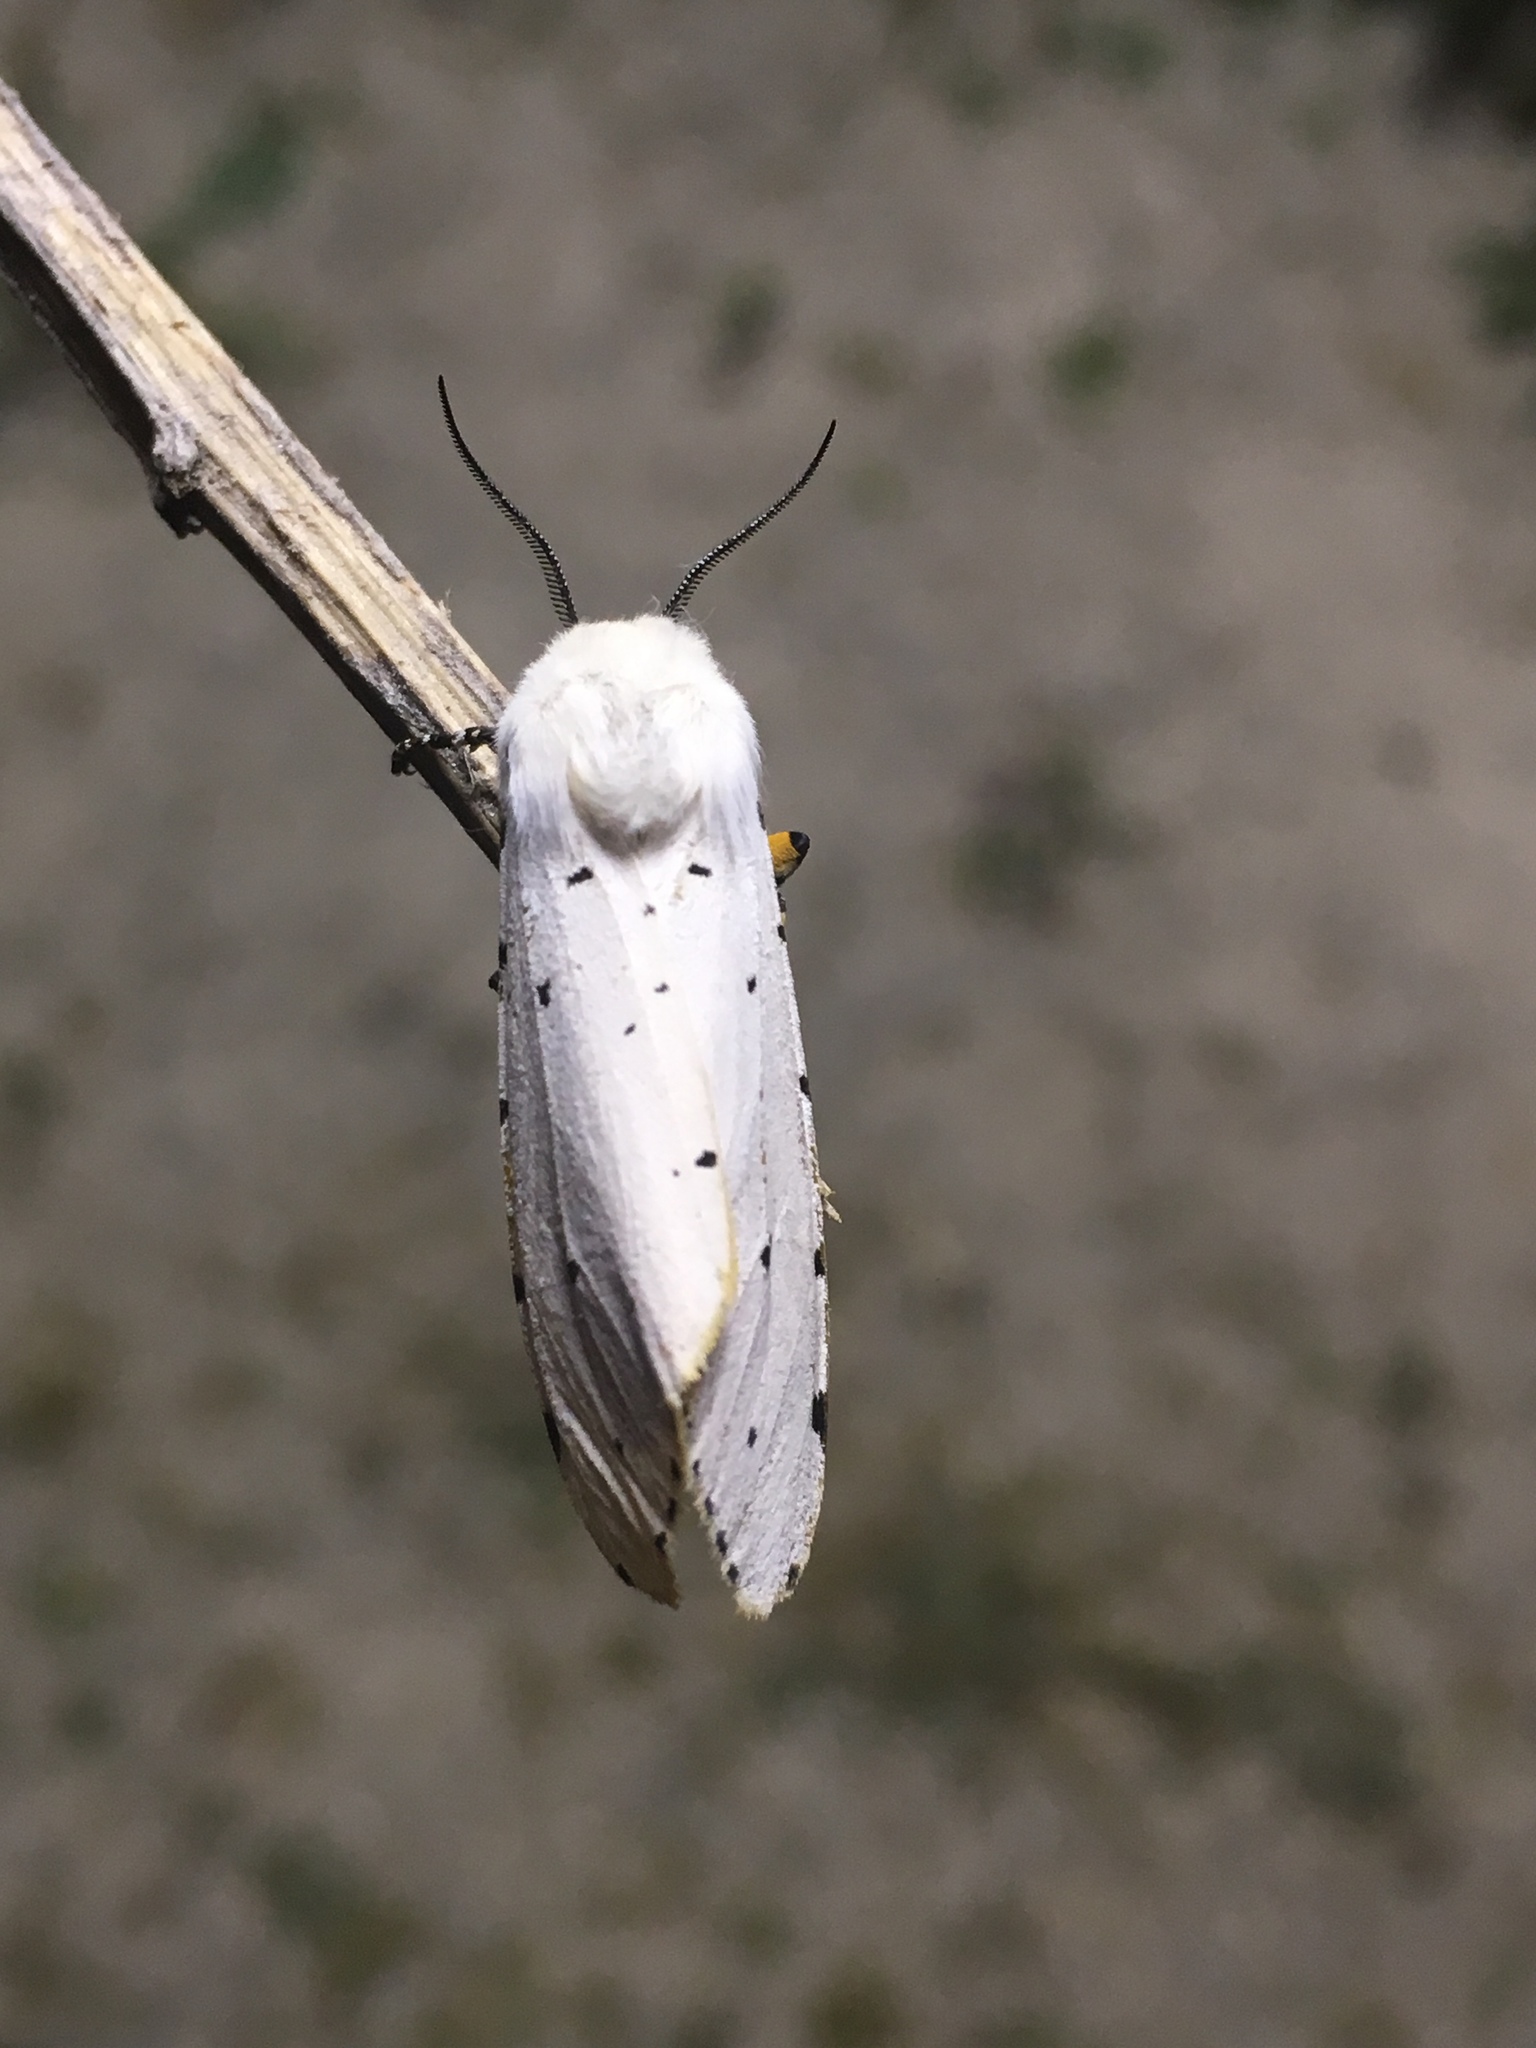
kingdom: Animalia
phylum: Arthropoda
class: Insecta
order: Lepidoptera
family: Erebidae
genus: Estigmene
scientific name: Estigmene acrea
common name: Salt marsh moth
